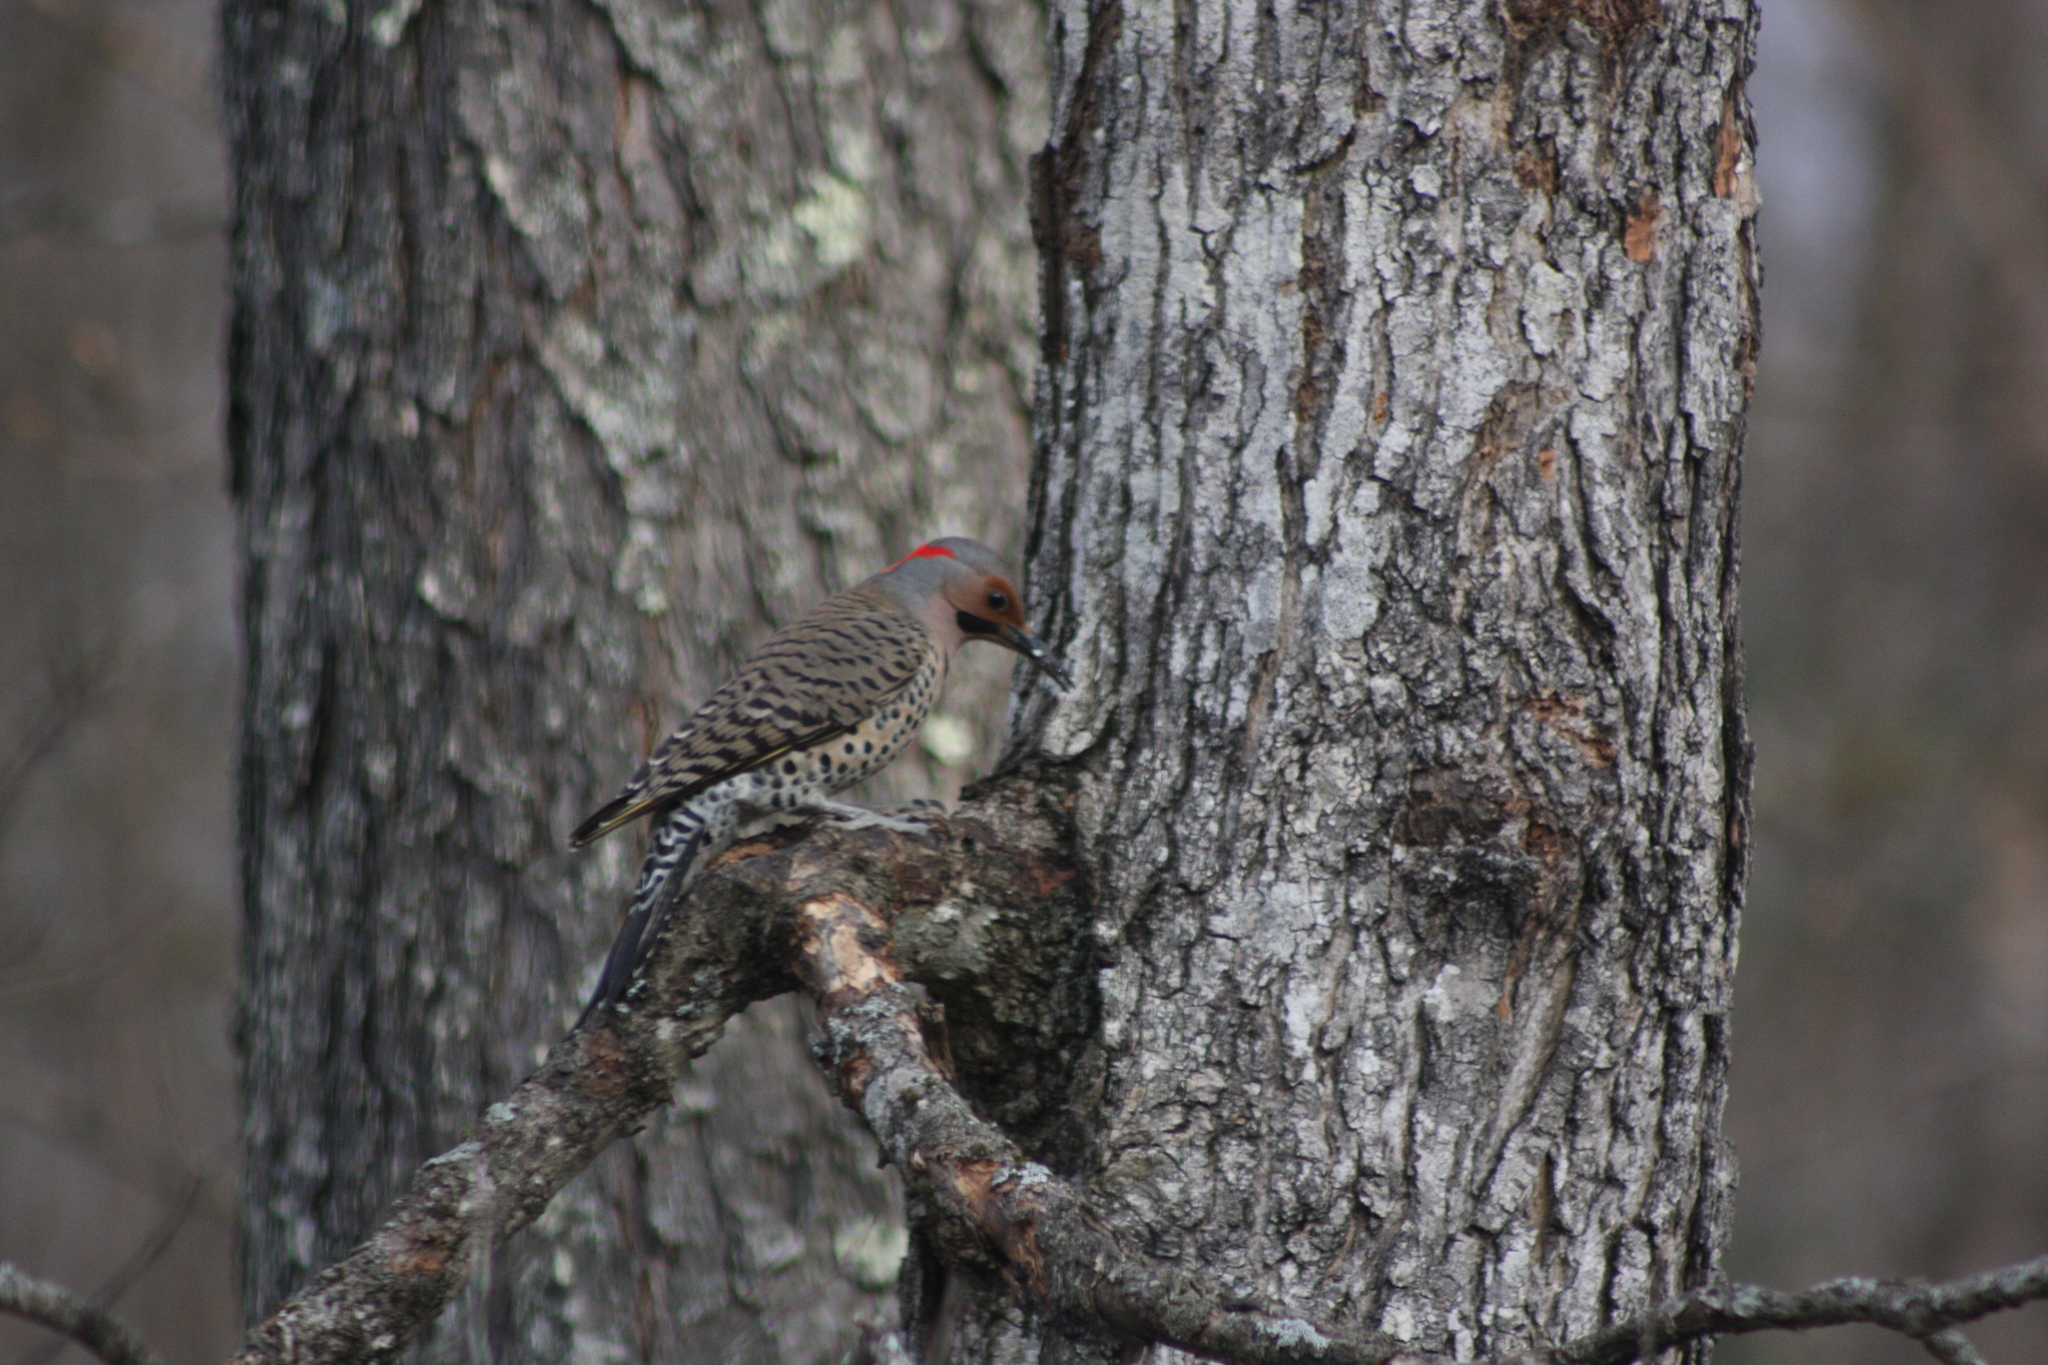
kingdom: Animalia
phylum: Chordata
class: Aves
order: Piciformes
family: Picidae
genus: Colaptes
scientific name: Colaptes auratus
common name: Northern flicker
